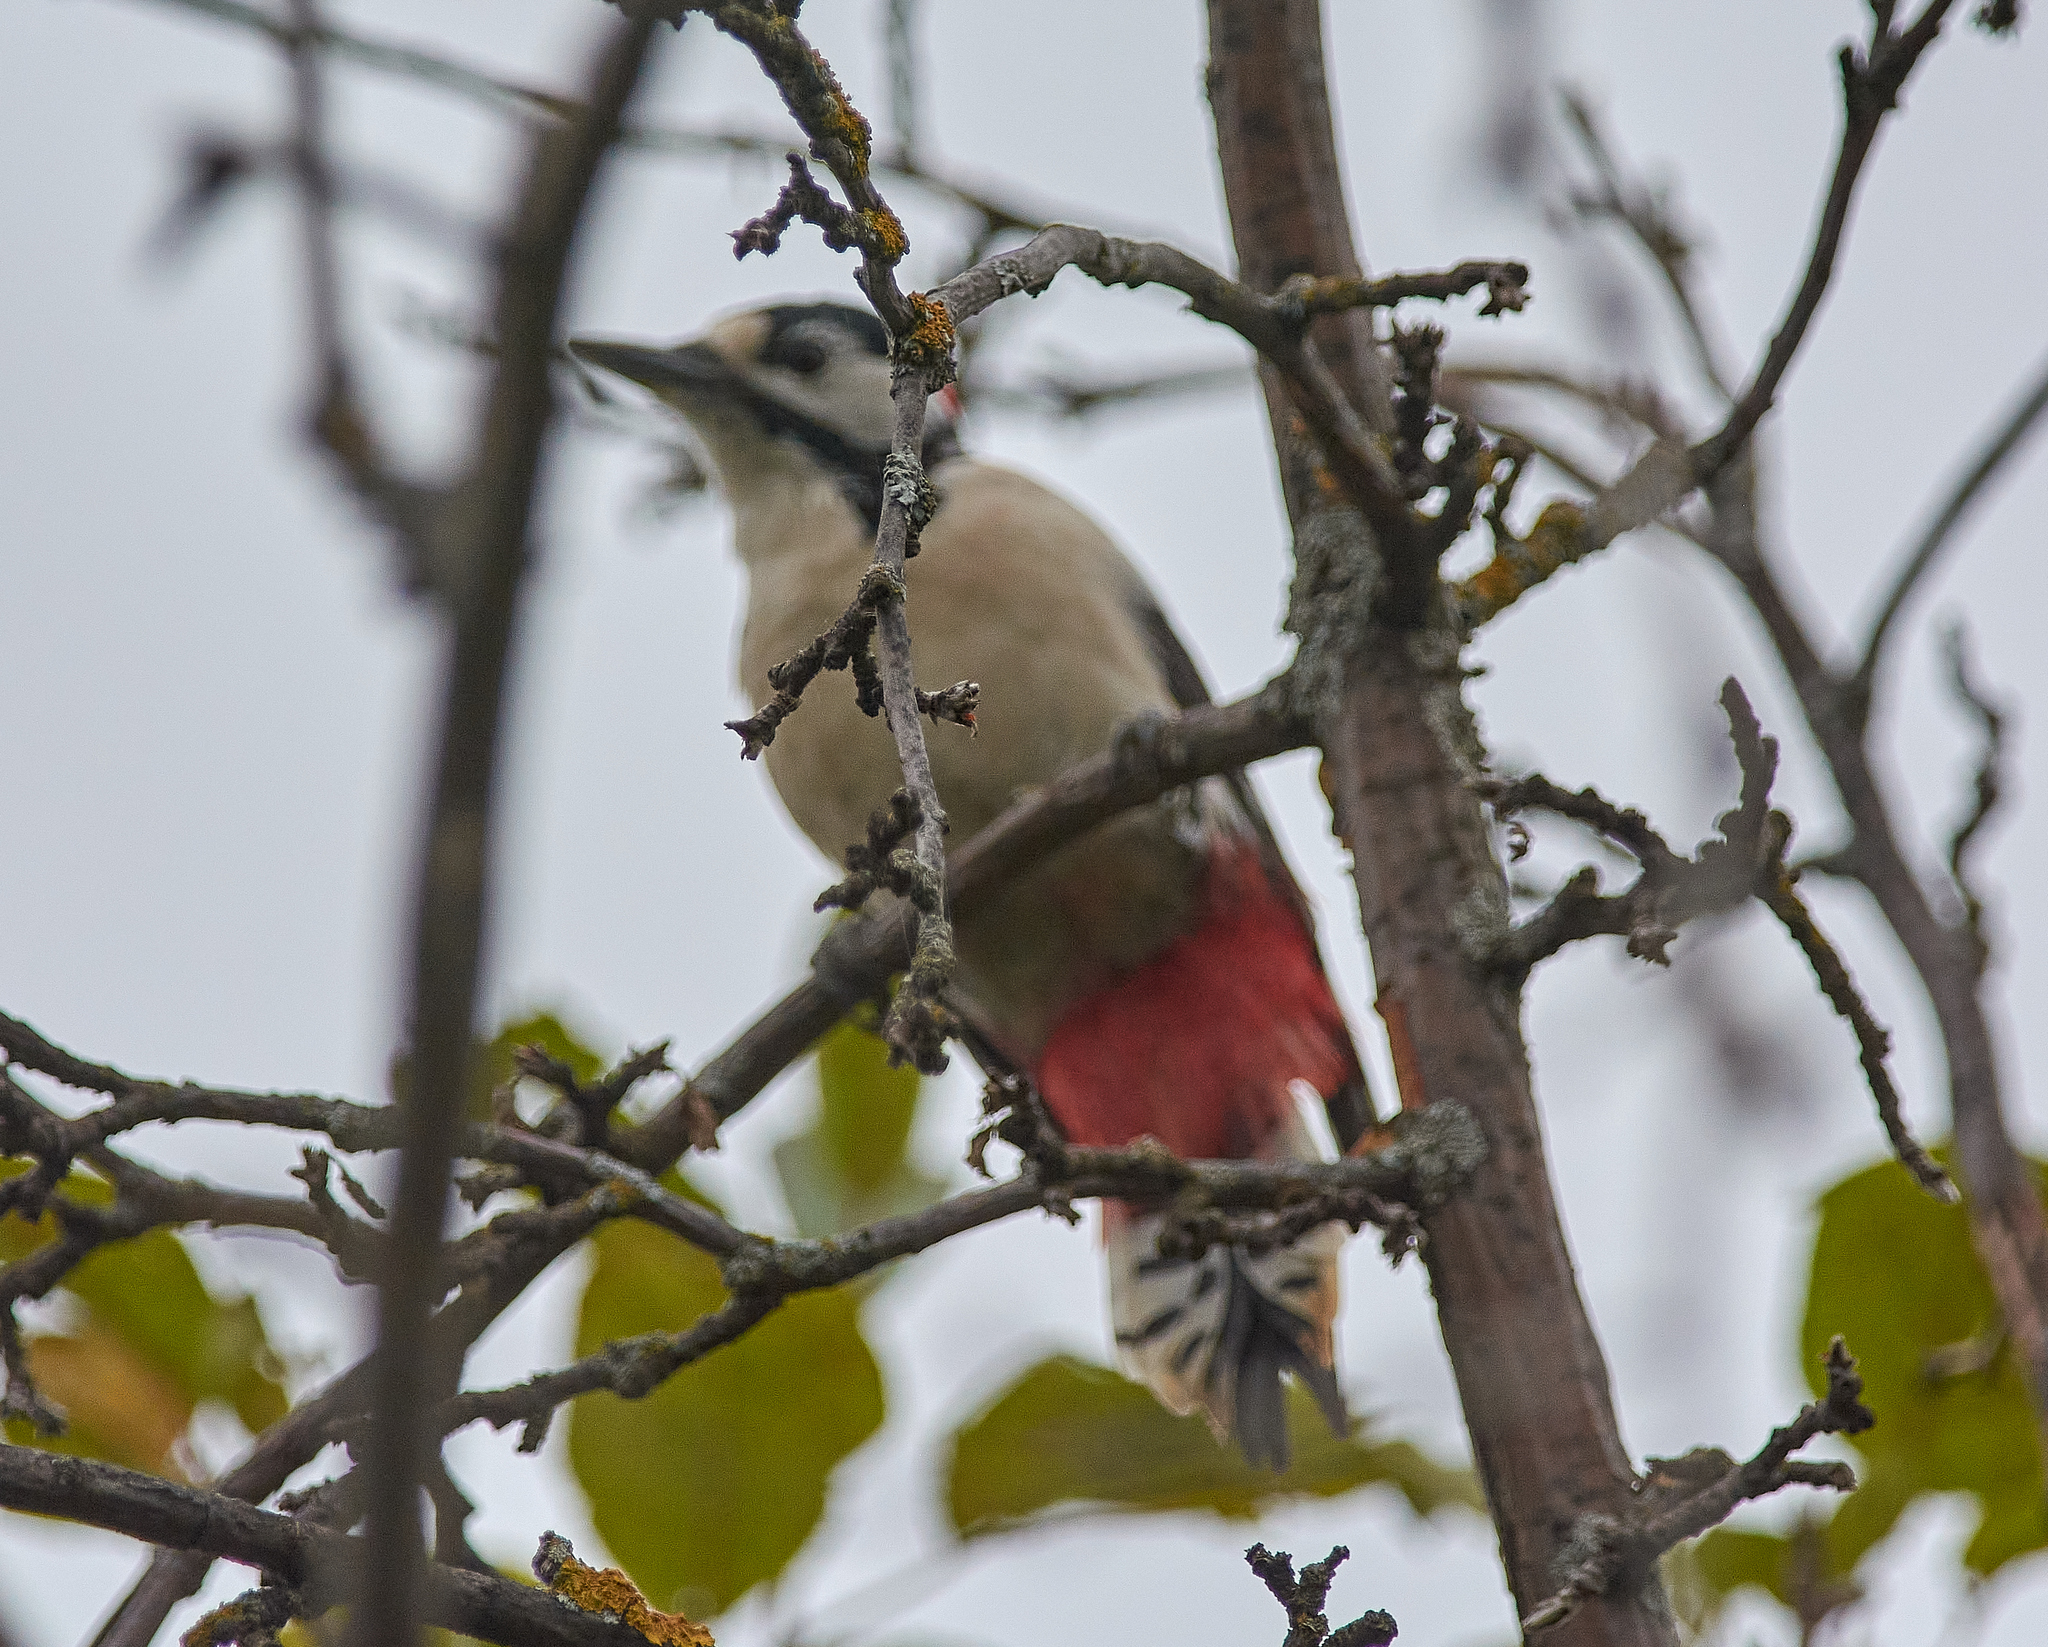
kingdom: Animalia
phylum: Chordata
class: Aves
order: Piciformes
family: Picidae
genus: Dendrocopos
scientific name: Dendrocopos major
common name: Great spotted woodpecker
